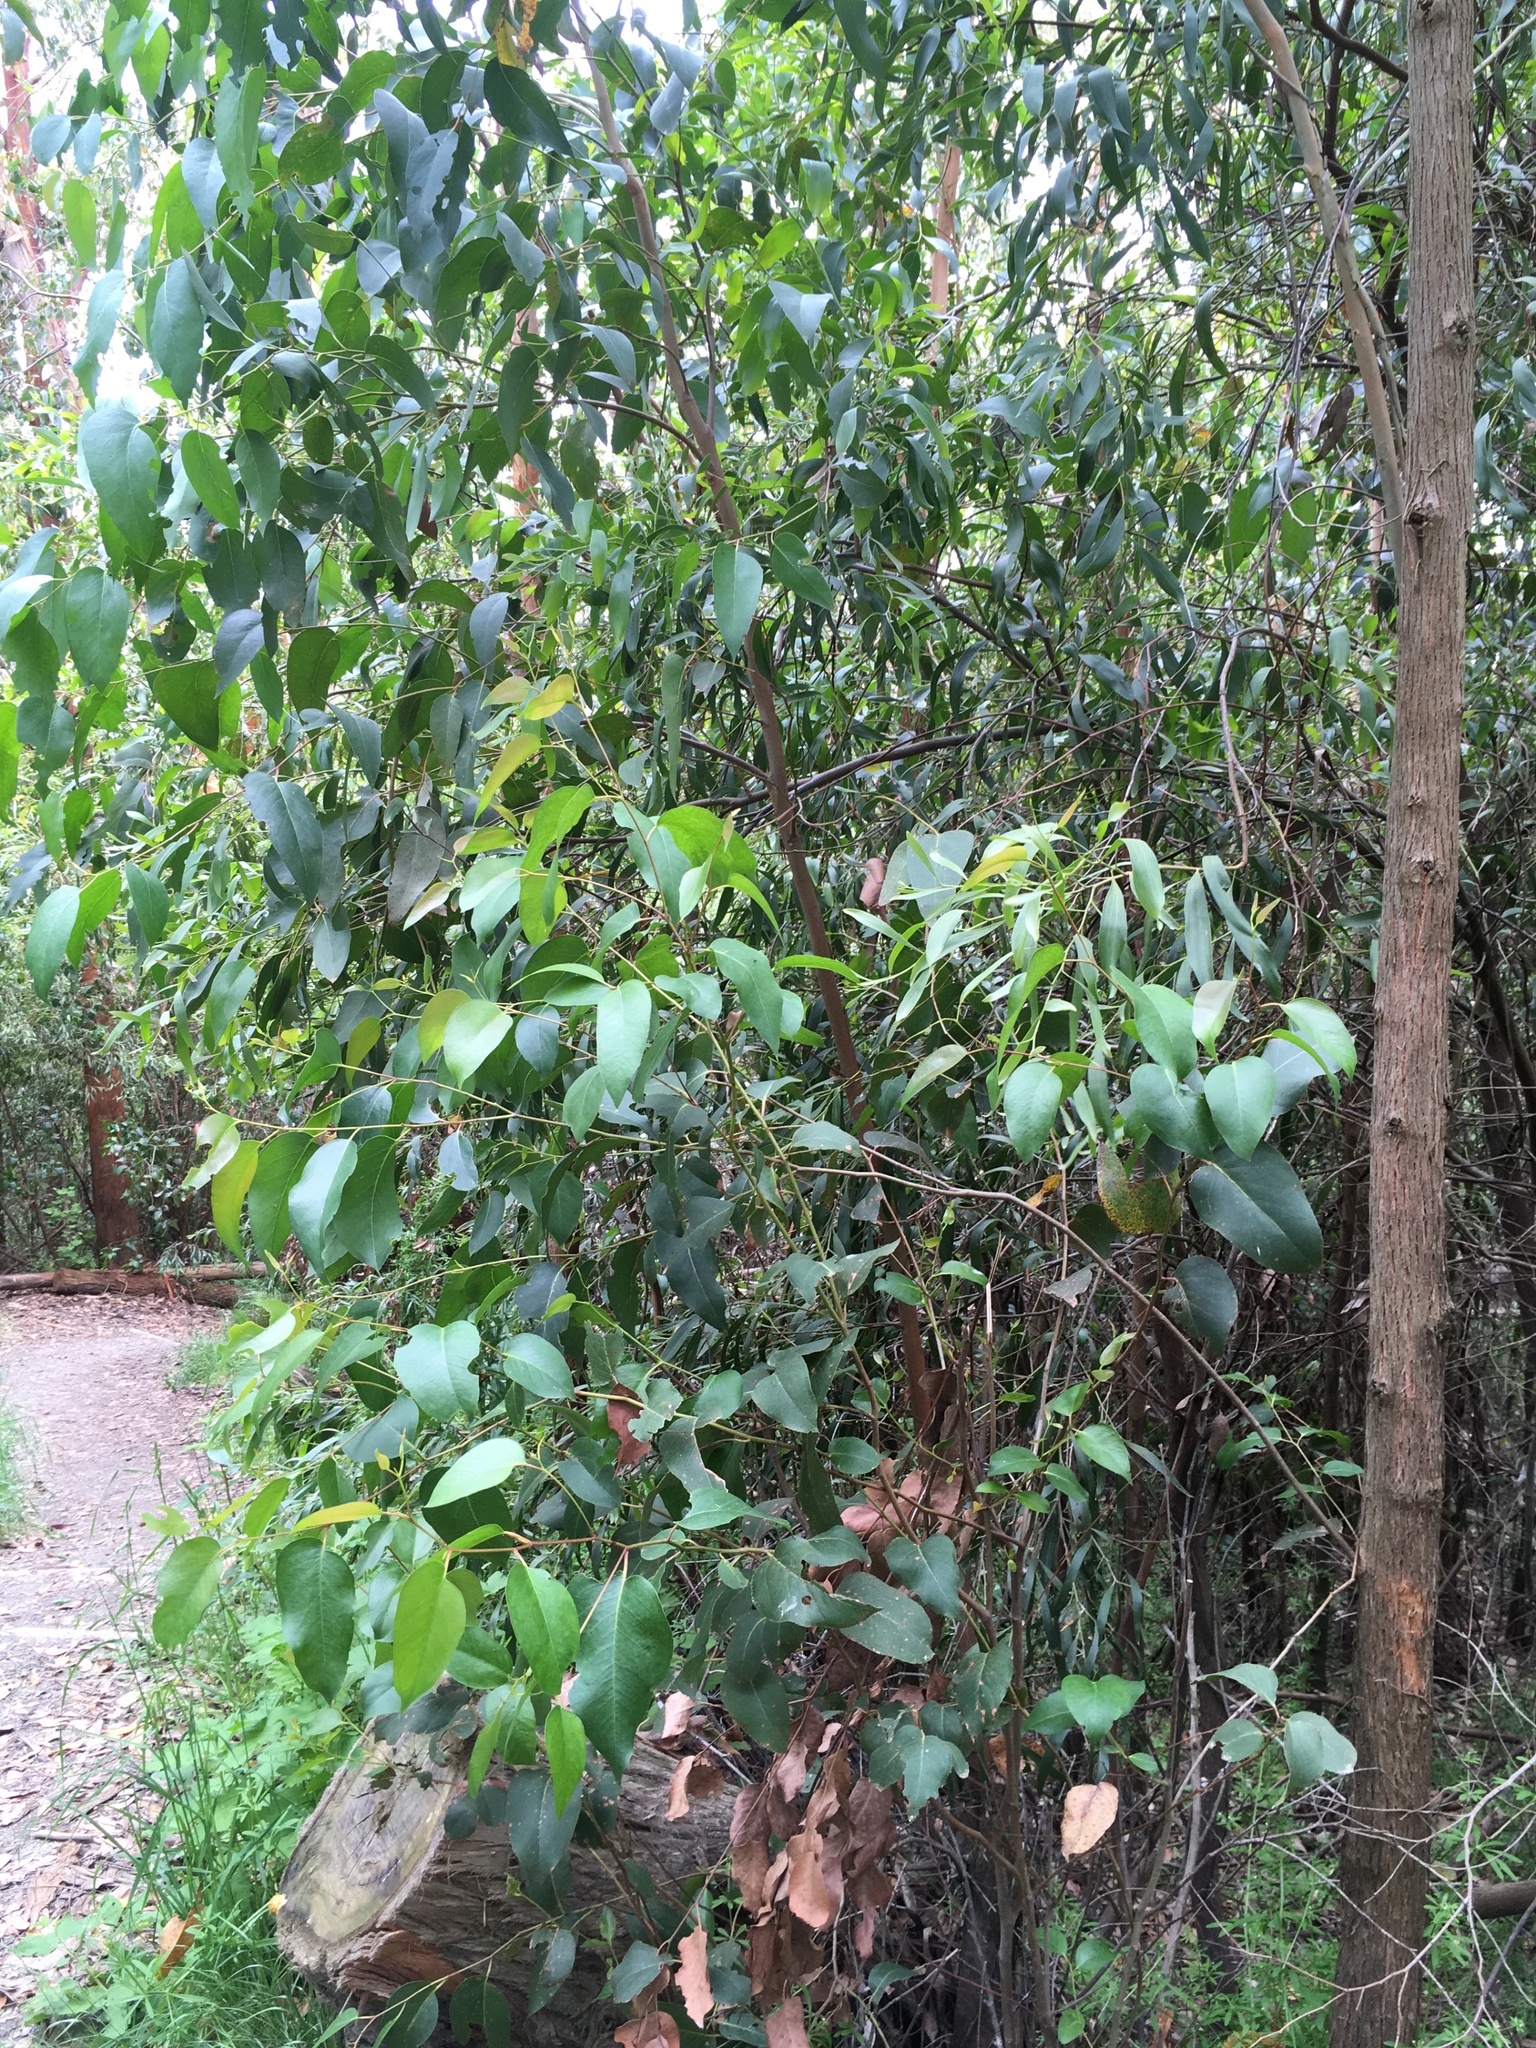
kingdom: Plantae
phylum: Tracheophyta
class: Magnoliopsida
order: Myrtales
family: Myrtaceae
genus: Eucalyptus
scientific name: Eucalyptus obliqua
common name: Messmate stringybark
